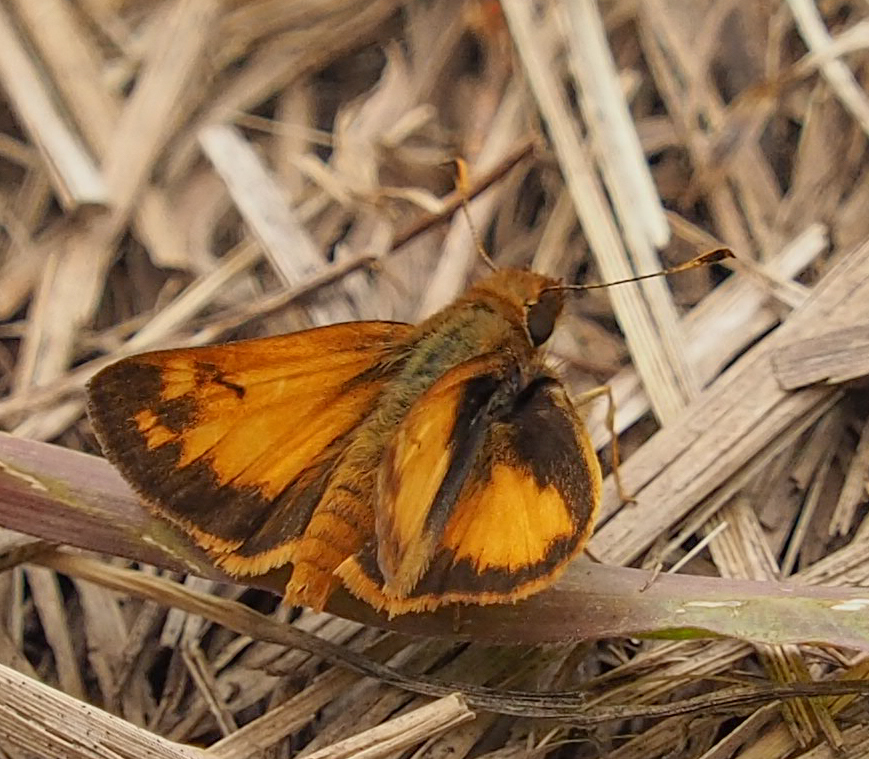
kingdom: Animalia
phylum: Arthropoda
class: Insecta
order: Lepidoptera
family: Hesperiidae
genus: Lon
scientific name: Lon zabulon
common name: Zabulon skipper
